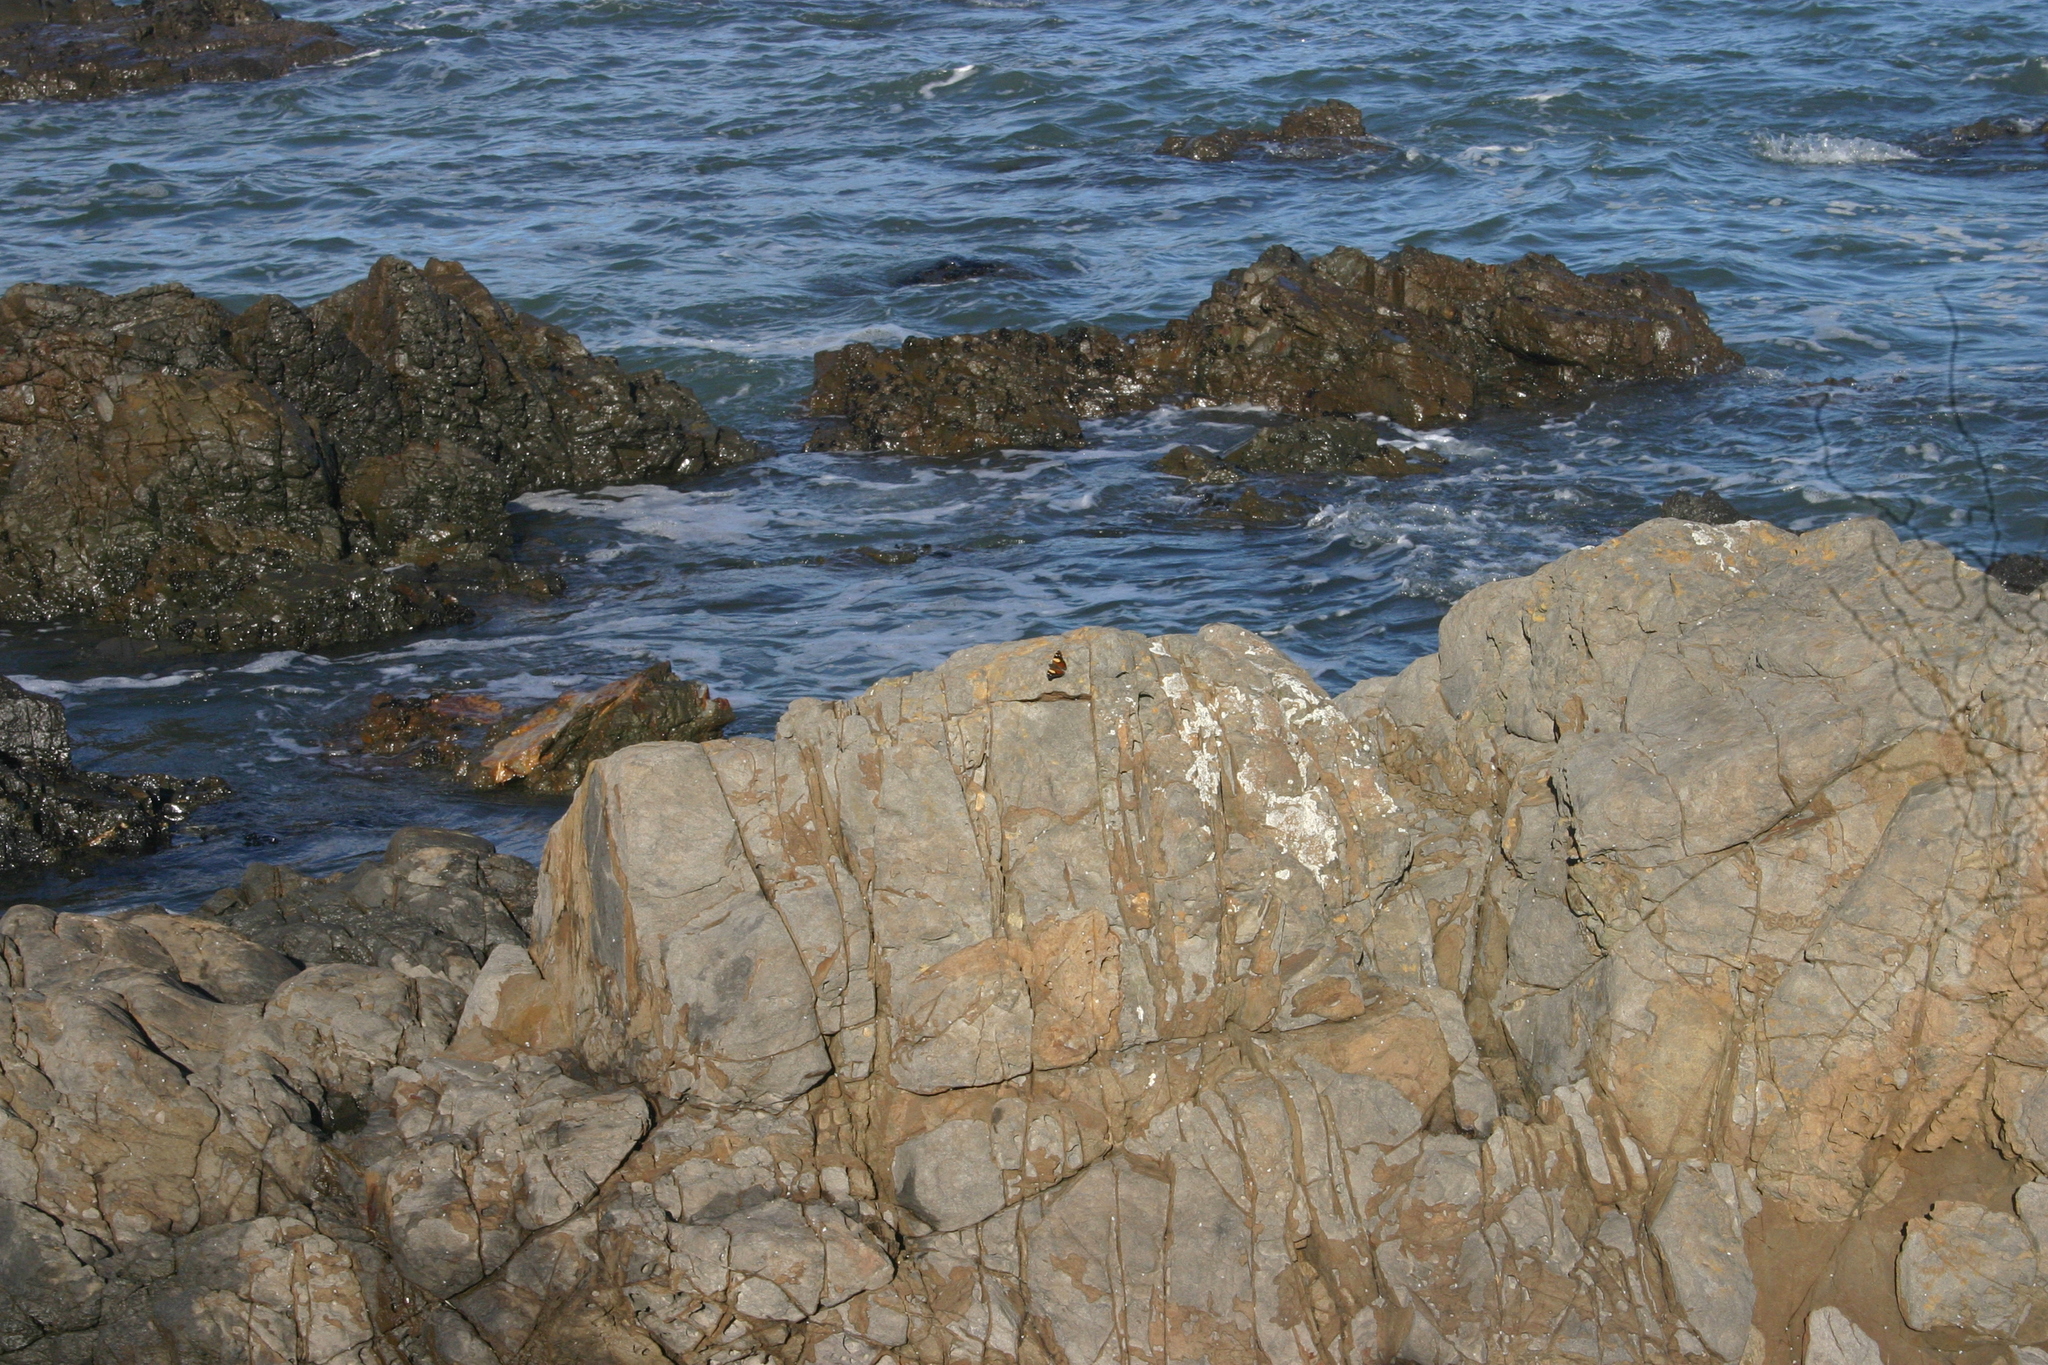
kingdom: Animalia
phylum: Arthropoda
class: Insecta
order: Lepidoptera
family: Nymphalidae
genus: Vanessa
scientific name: Vanessa itea
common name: Yellow admiral
